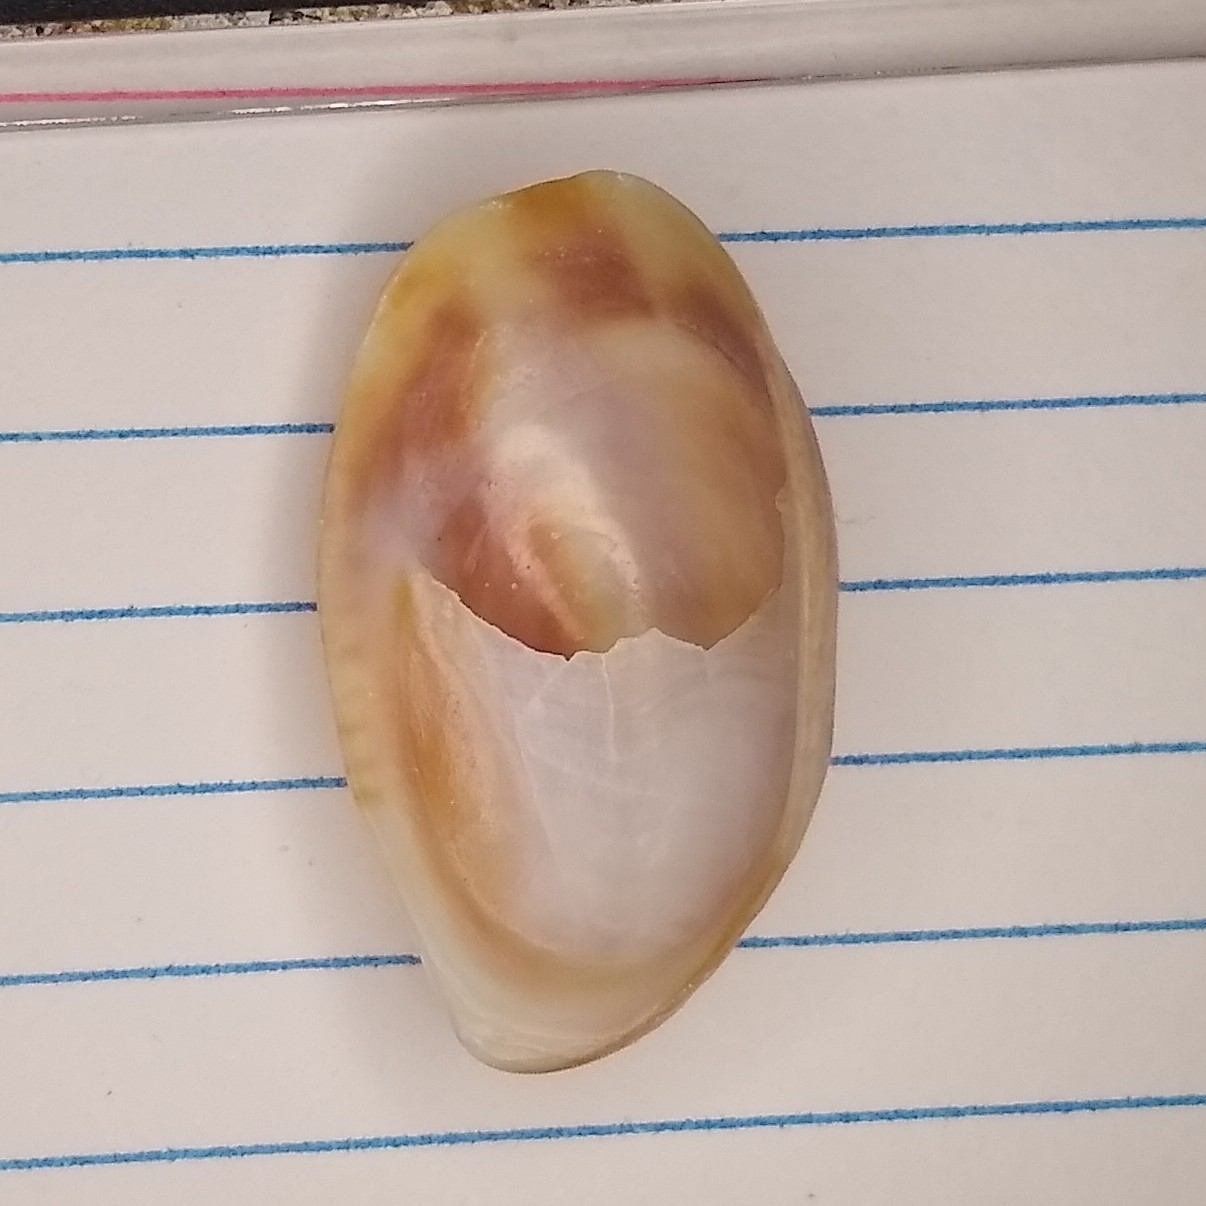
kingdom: Animalia
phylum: Mollusca
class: Gastropoda
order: Littorinimorpha
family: Calyptraeidae
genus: Crepidula
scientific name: Crepidula fornicata
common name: Slipper limpet
